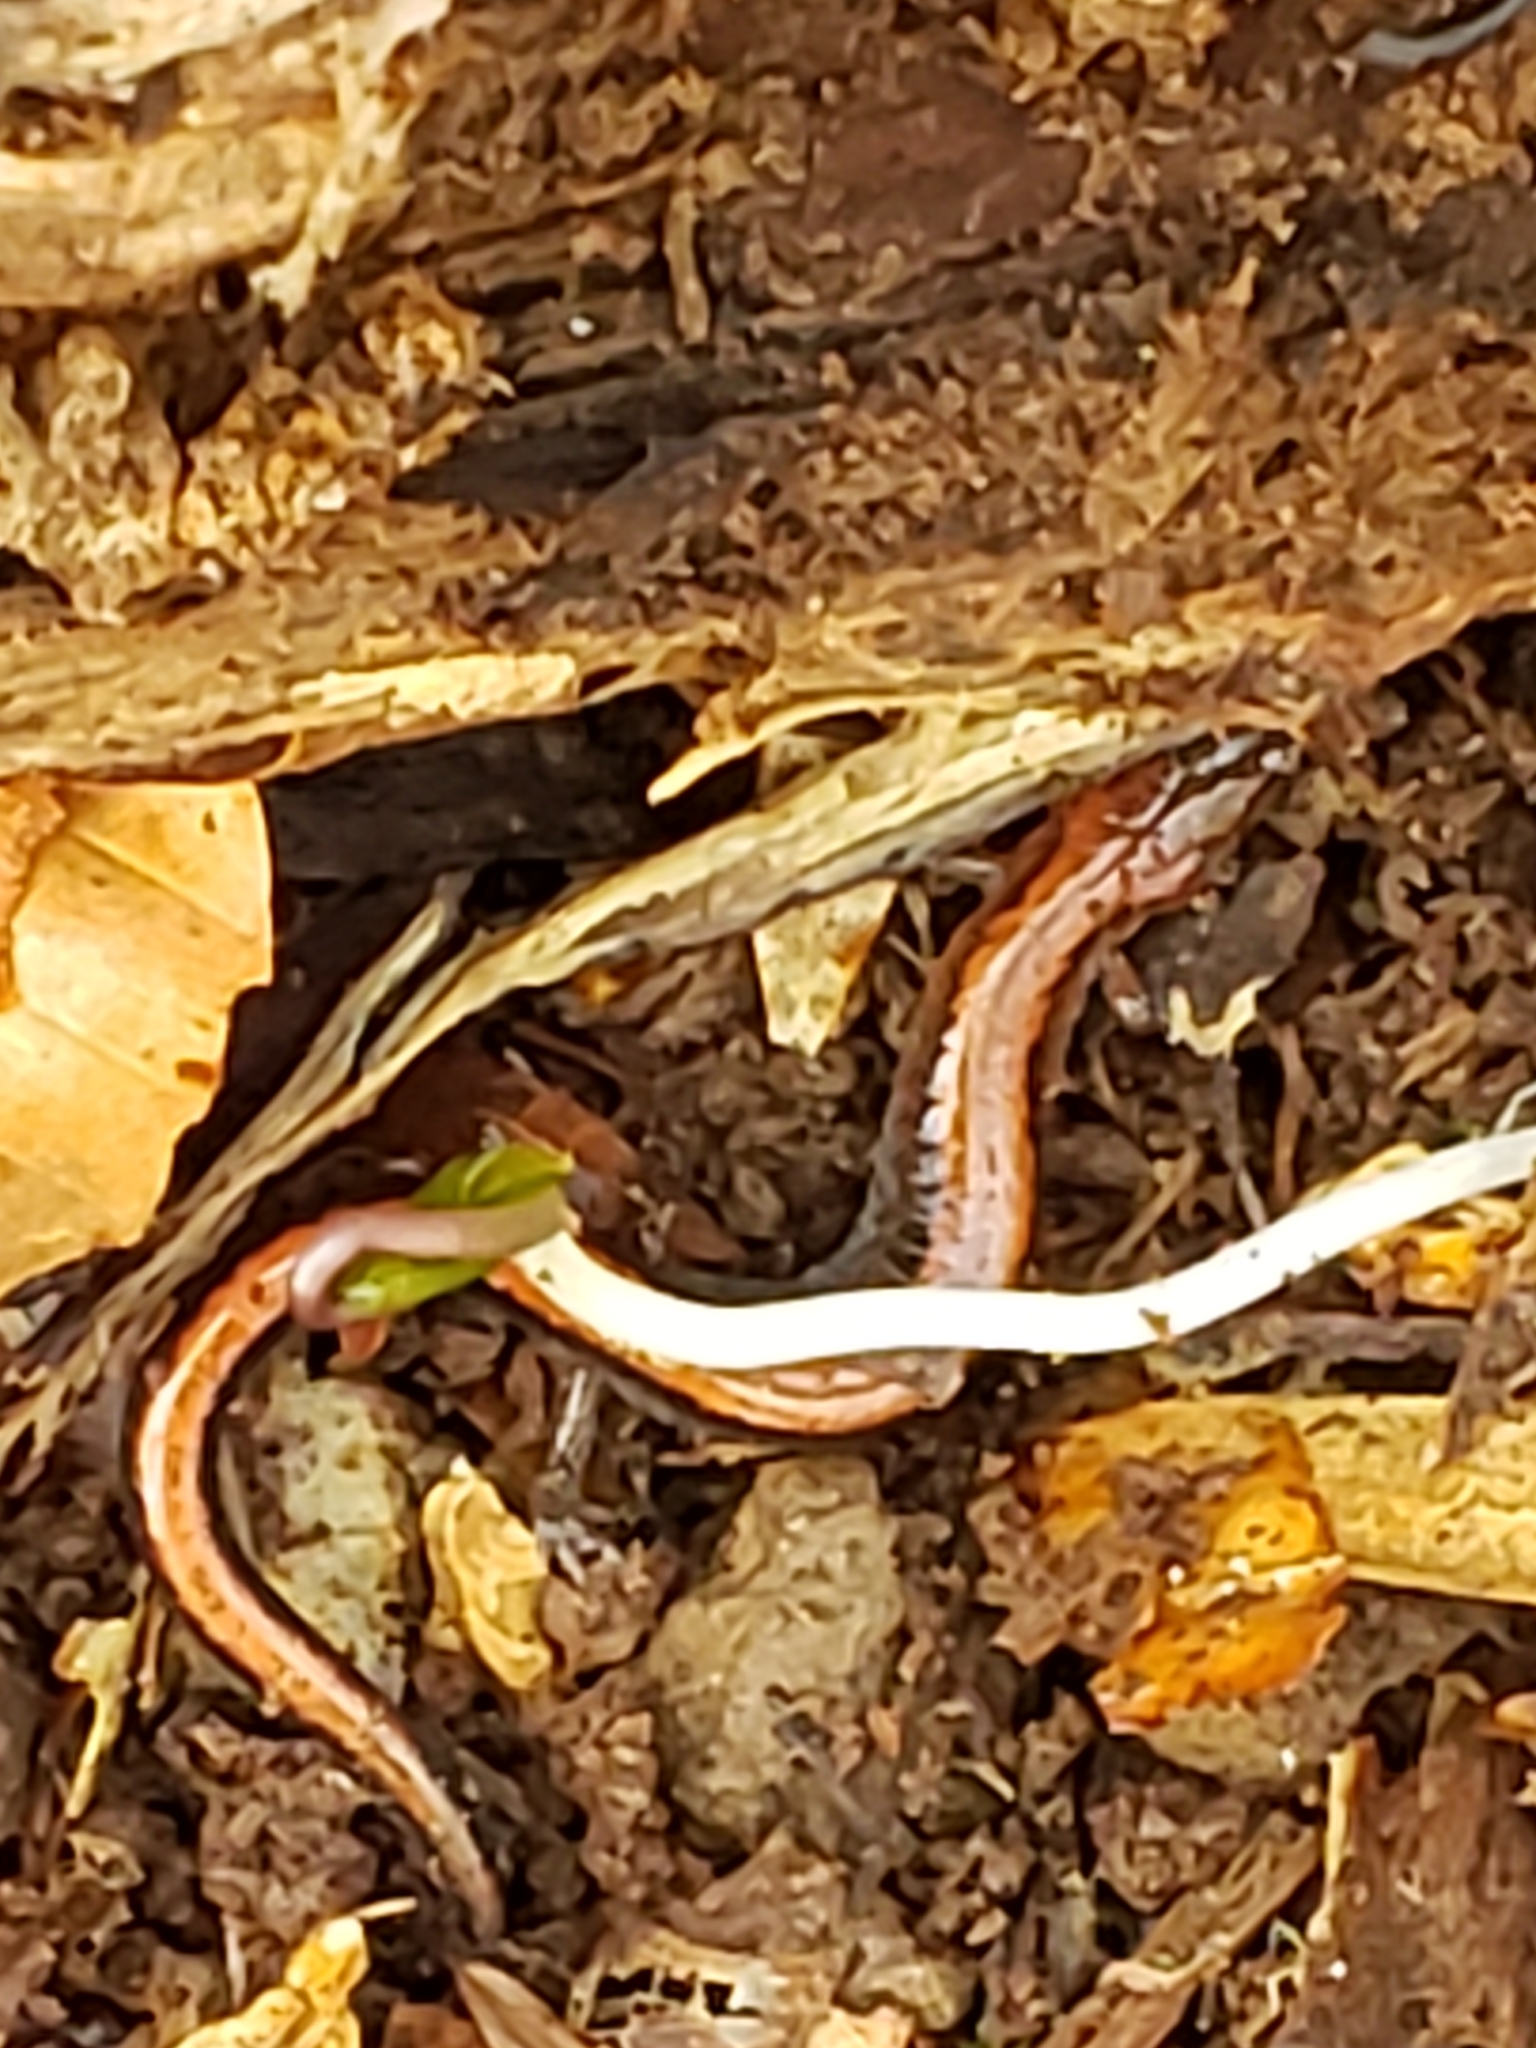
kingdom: Animalia
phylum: Chordata
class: Amphibia
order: Caudata
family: Plethodontidae
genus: Plethodon
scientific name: Plethodon cinereus
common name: Redback salamander
